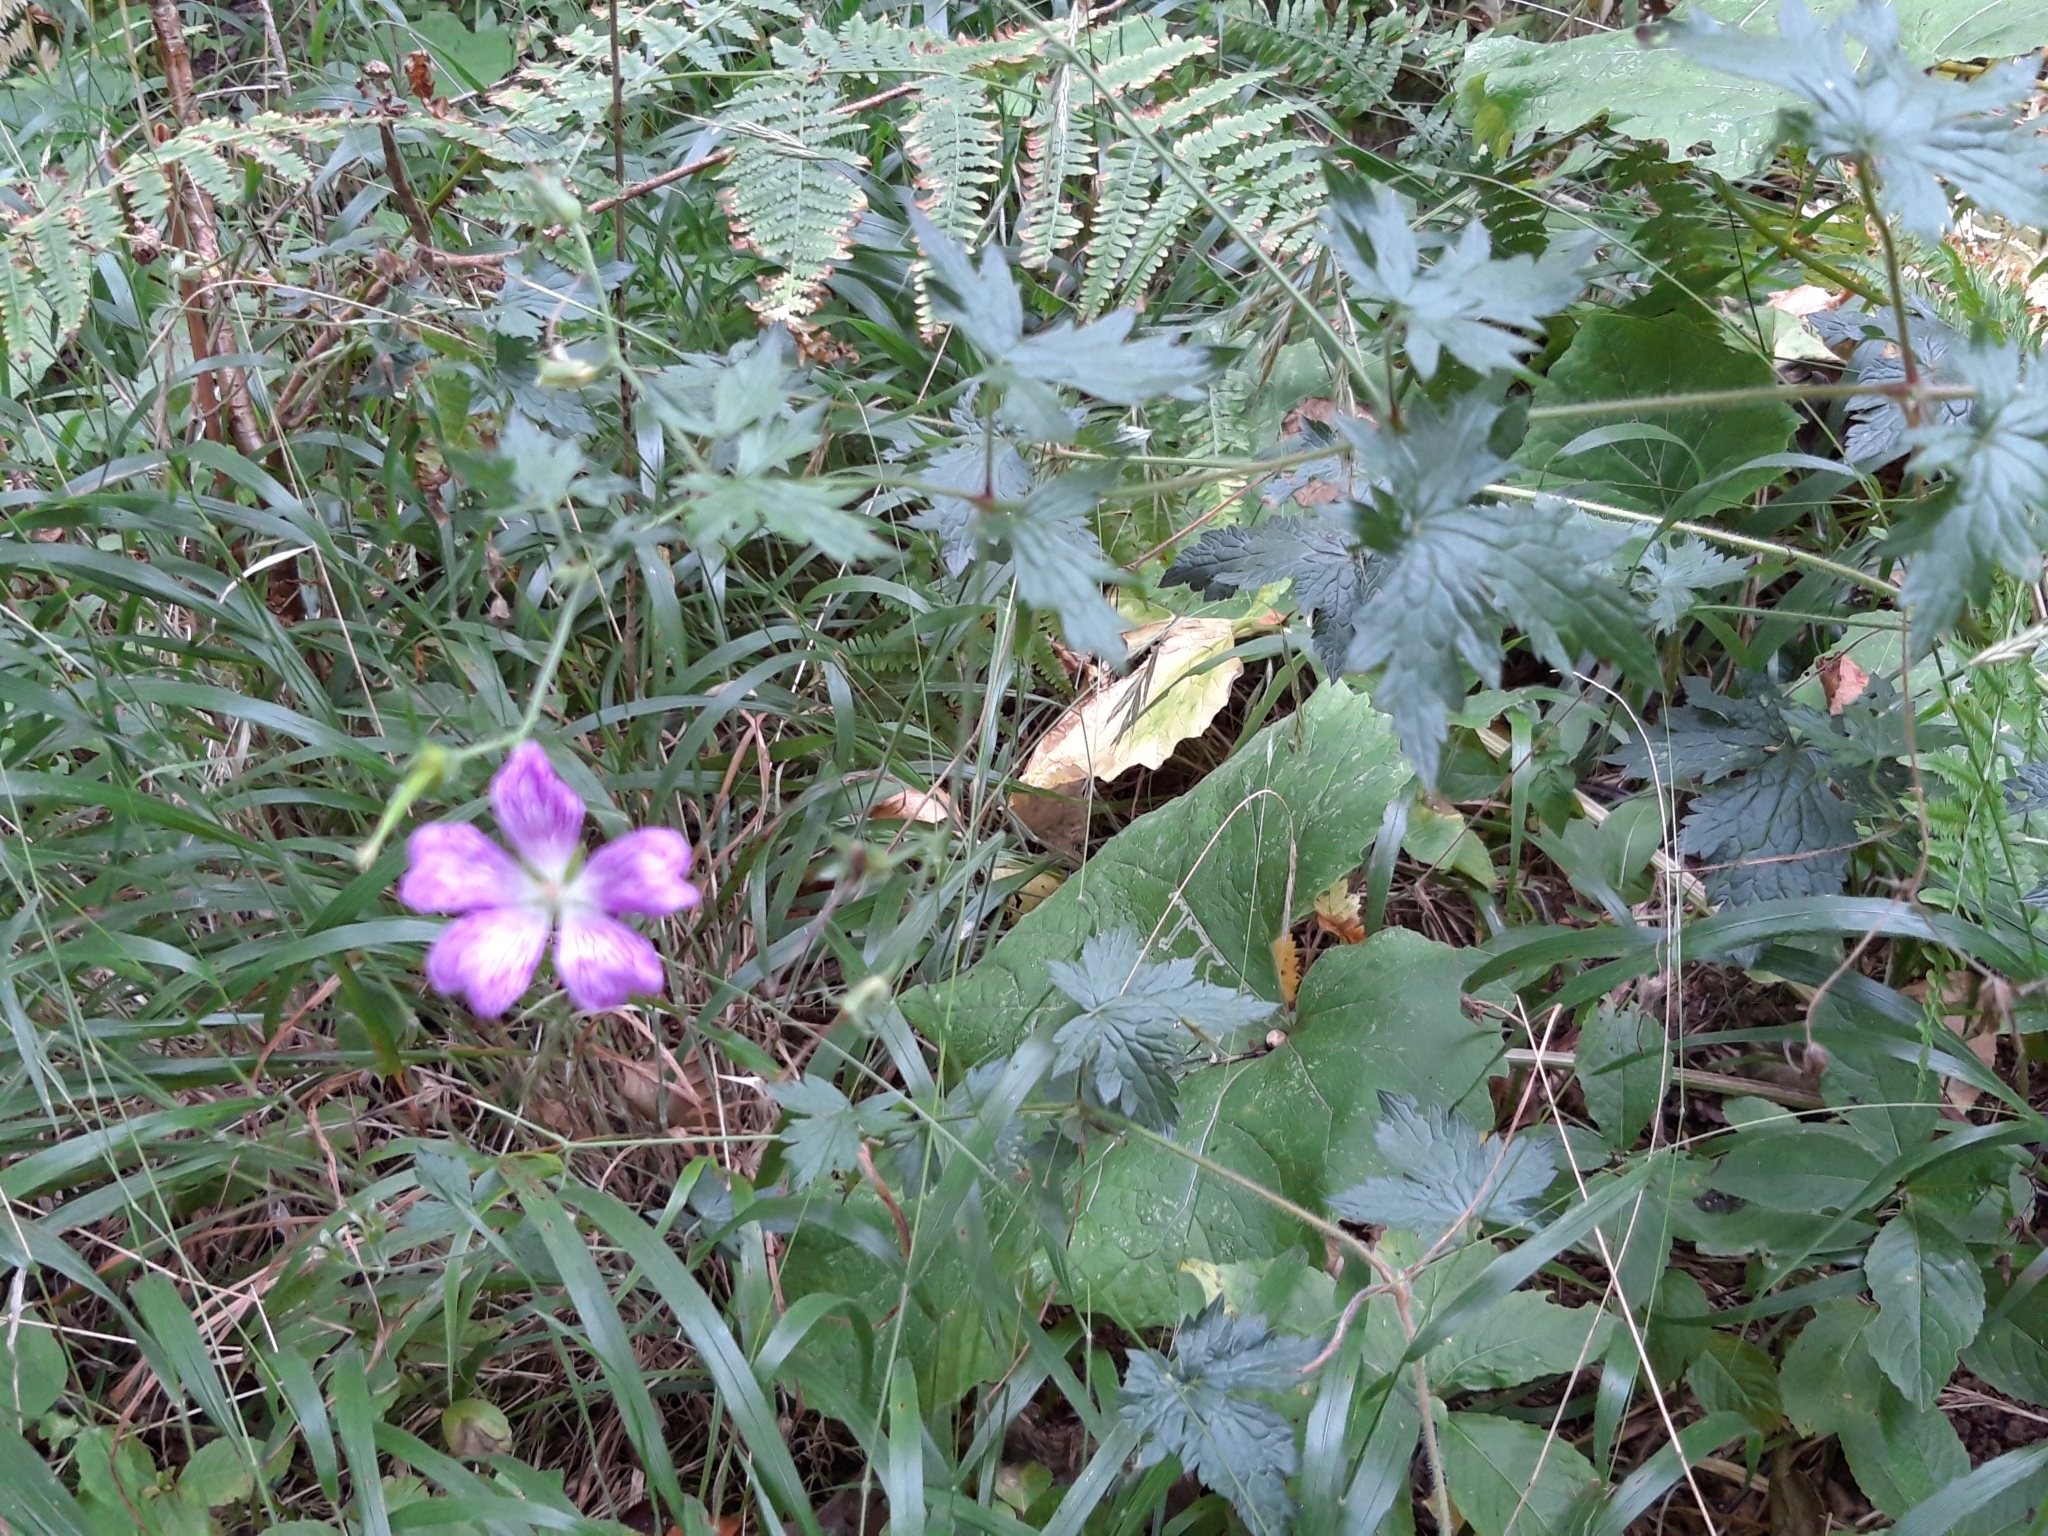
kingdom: Plantae
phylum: Tracheophyta
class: Magnoliopsida
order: Geraniales
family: Geraniaceae
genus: Geranium
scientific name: Geranium oxonianum
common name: Druce's crane's-bill
